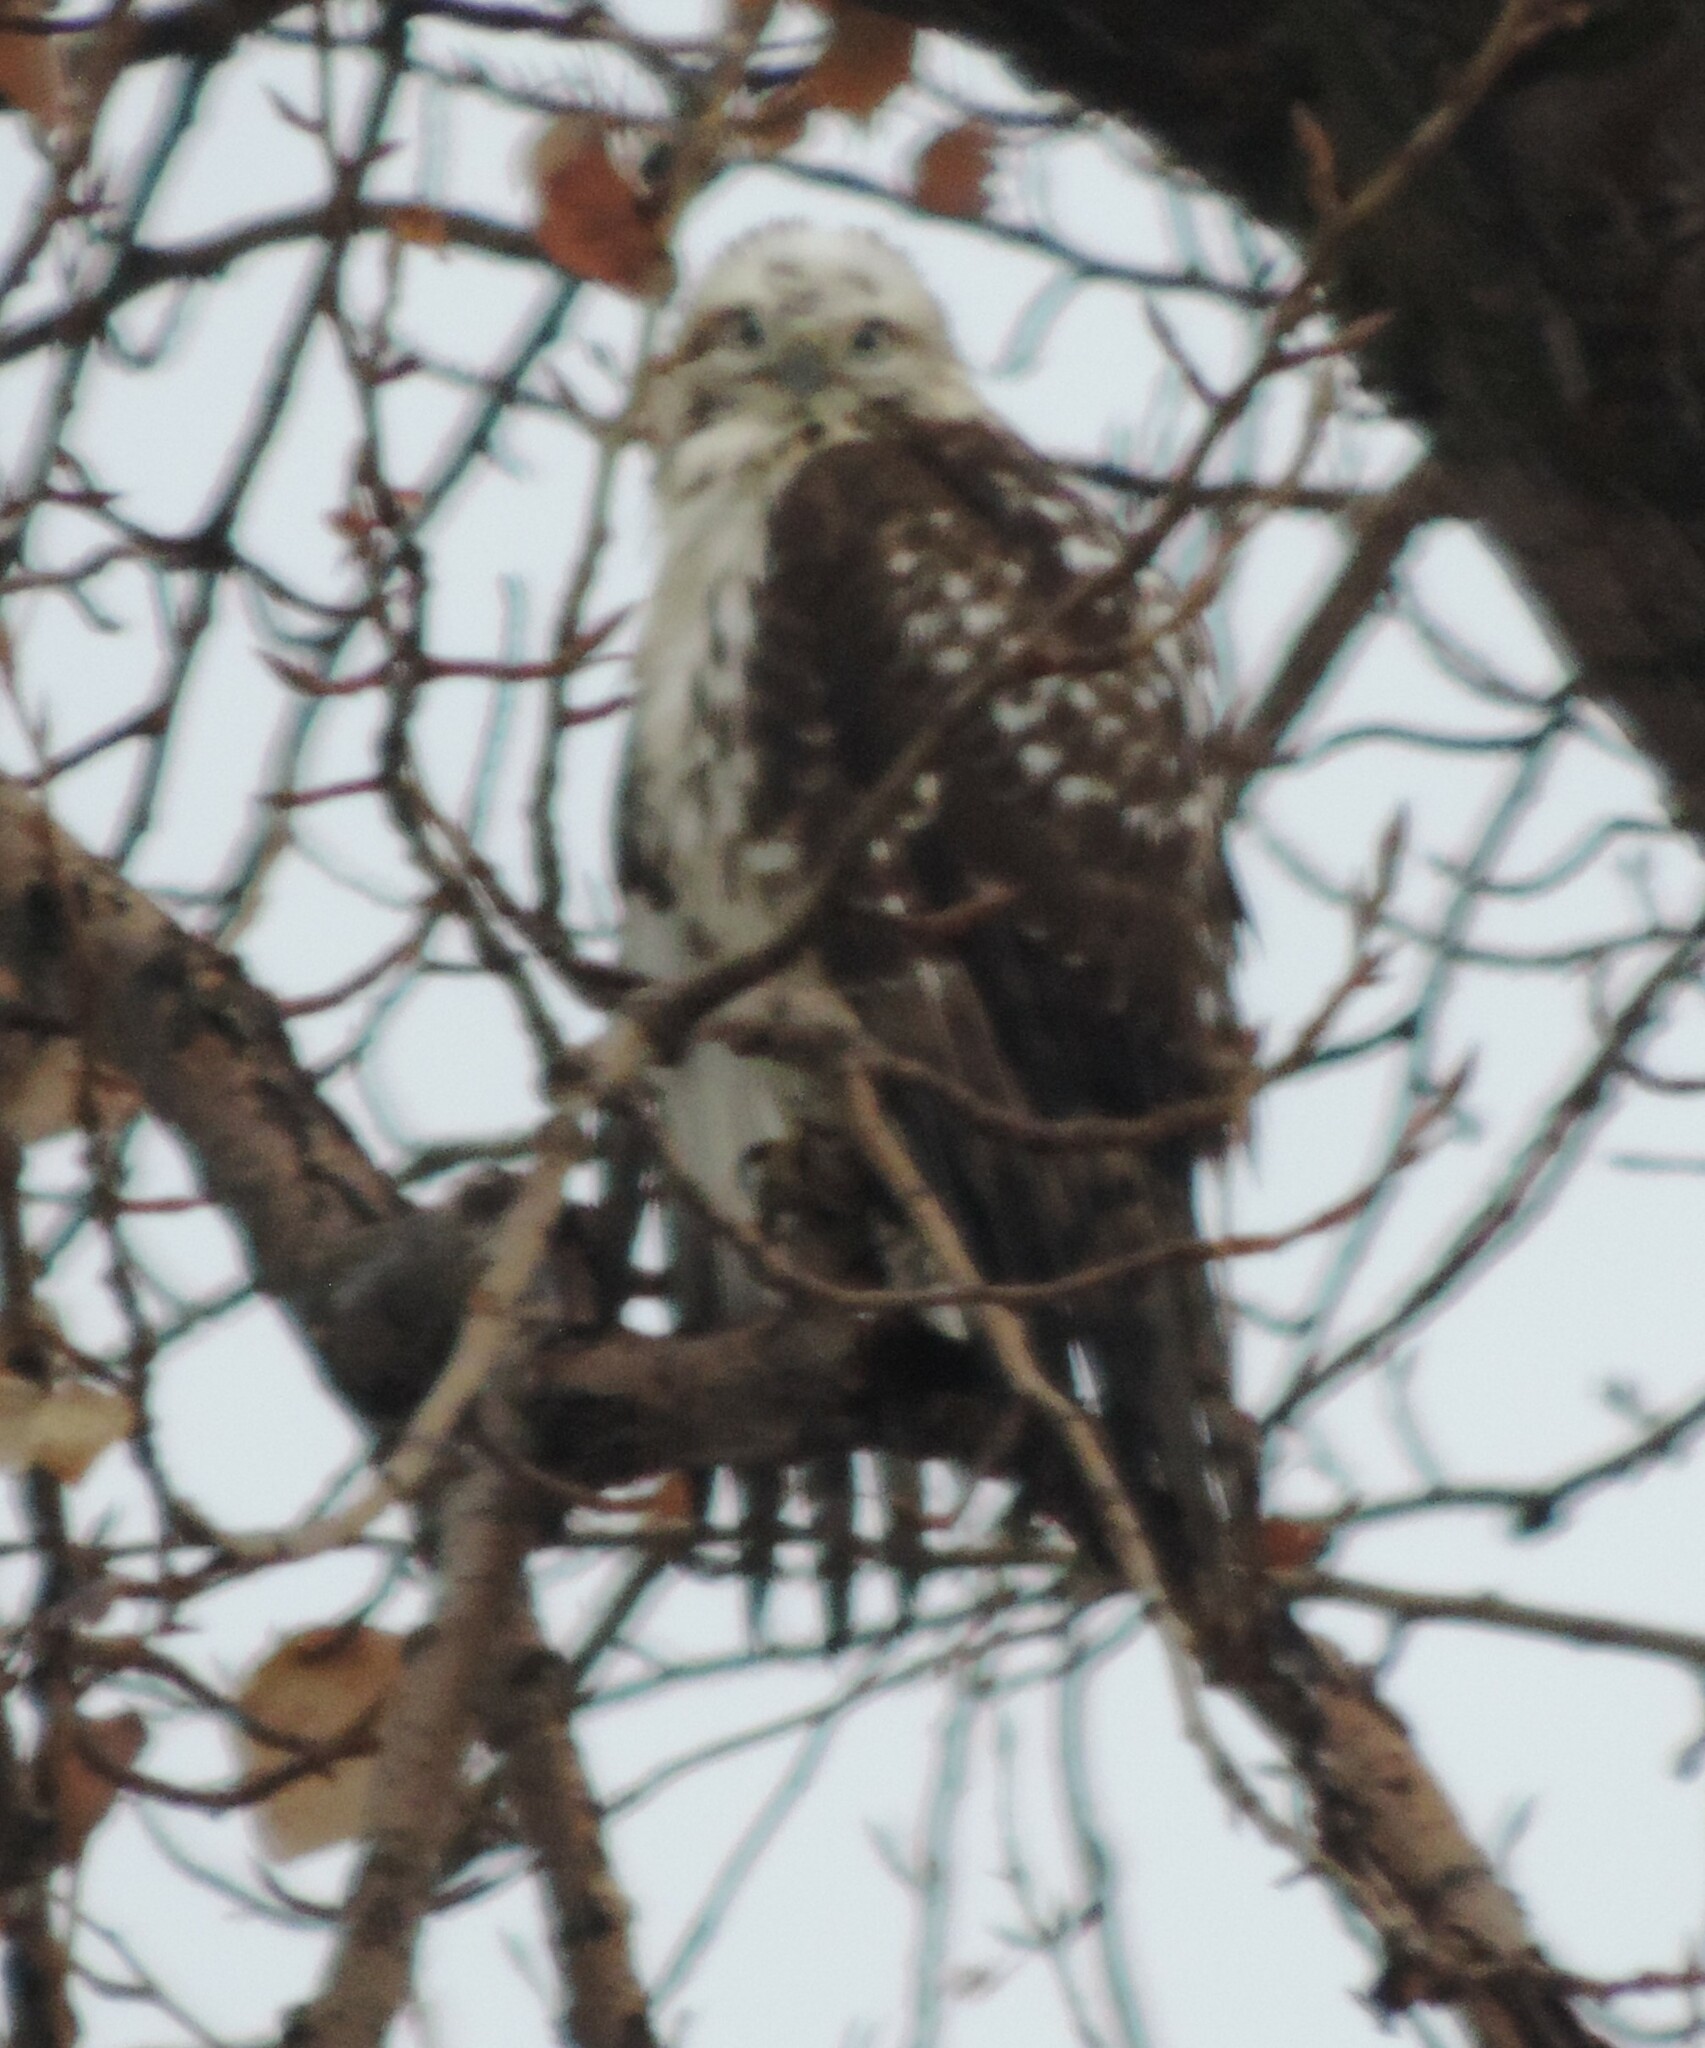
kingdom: Animalia
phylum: Chordata
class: Aves
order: Accipitriformes
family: Accipitridae
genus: Buteo
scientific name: Buteo jamaicensis
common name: Red-tailed hawk
